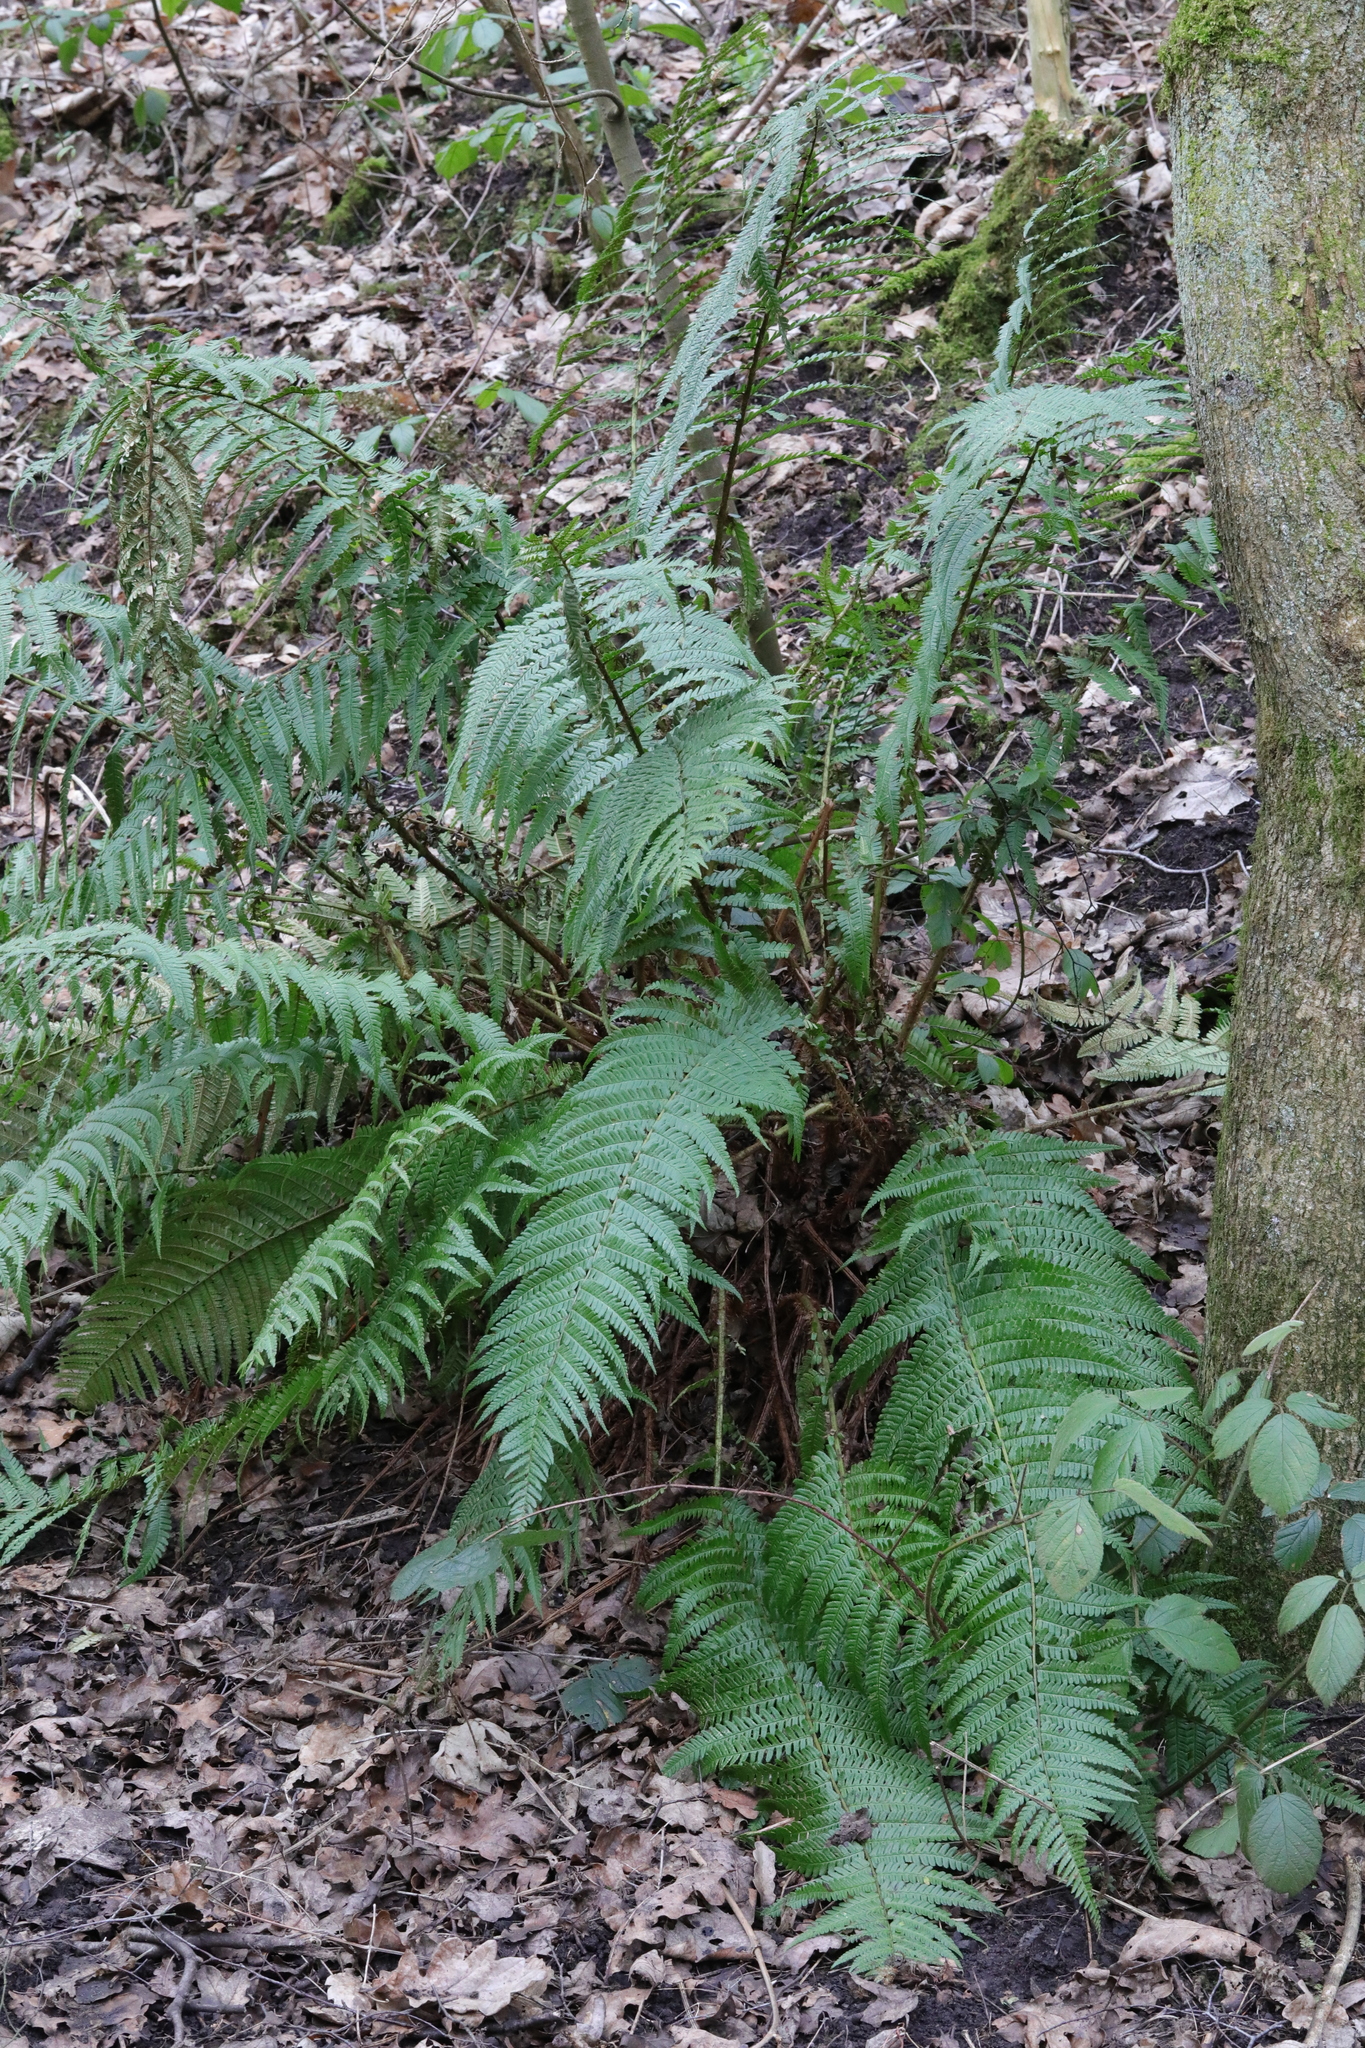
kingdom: Plantae
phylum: Tracheophyta
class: Polypodiopsida
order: Polypodiales
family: Dryopteridaceae
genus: Dryopteris
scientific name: Dryopteris filix-mas
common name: Male fern
